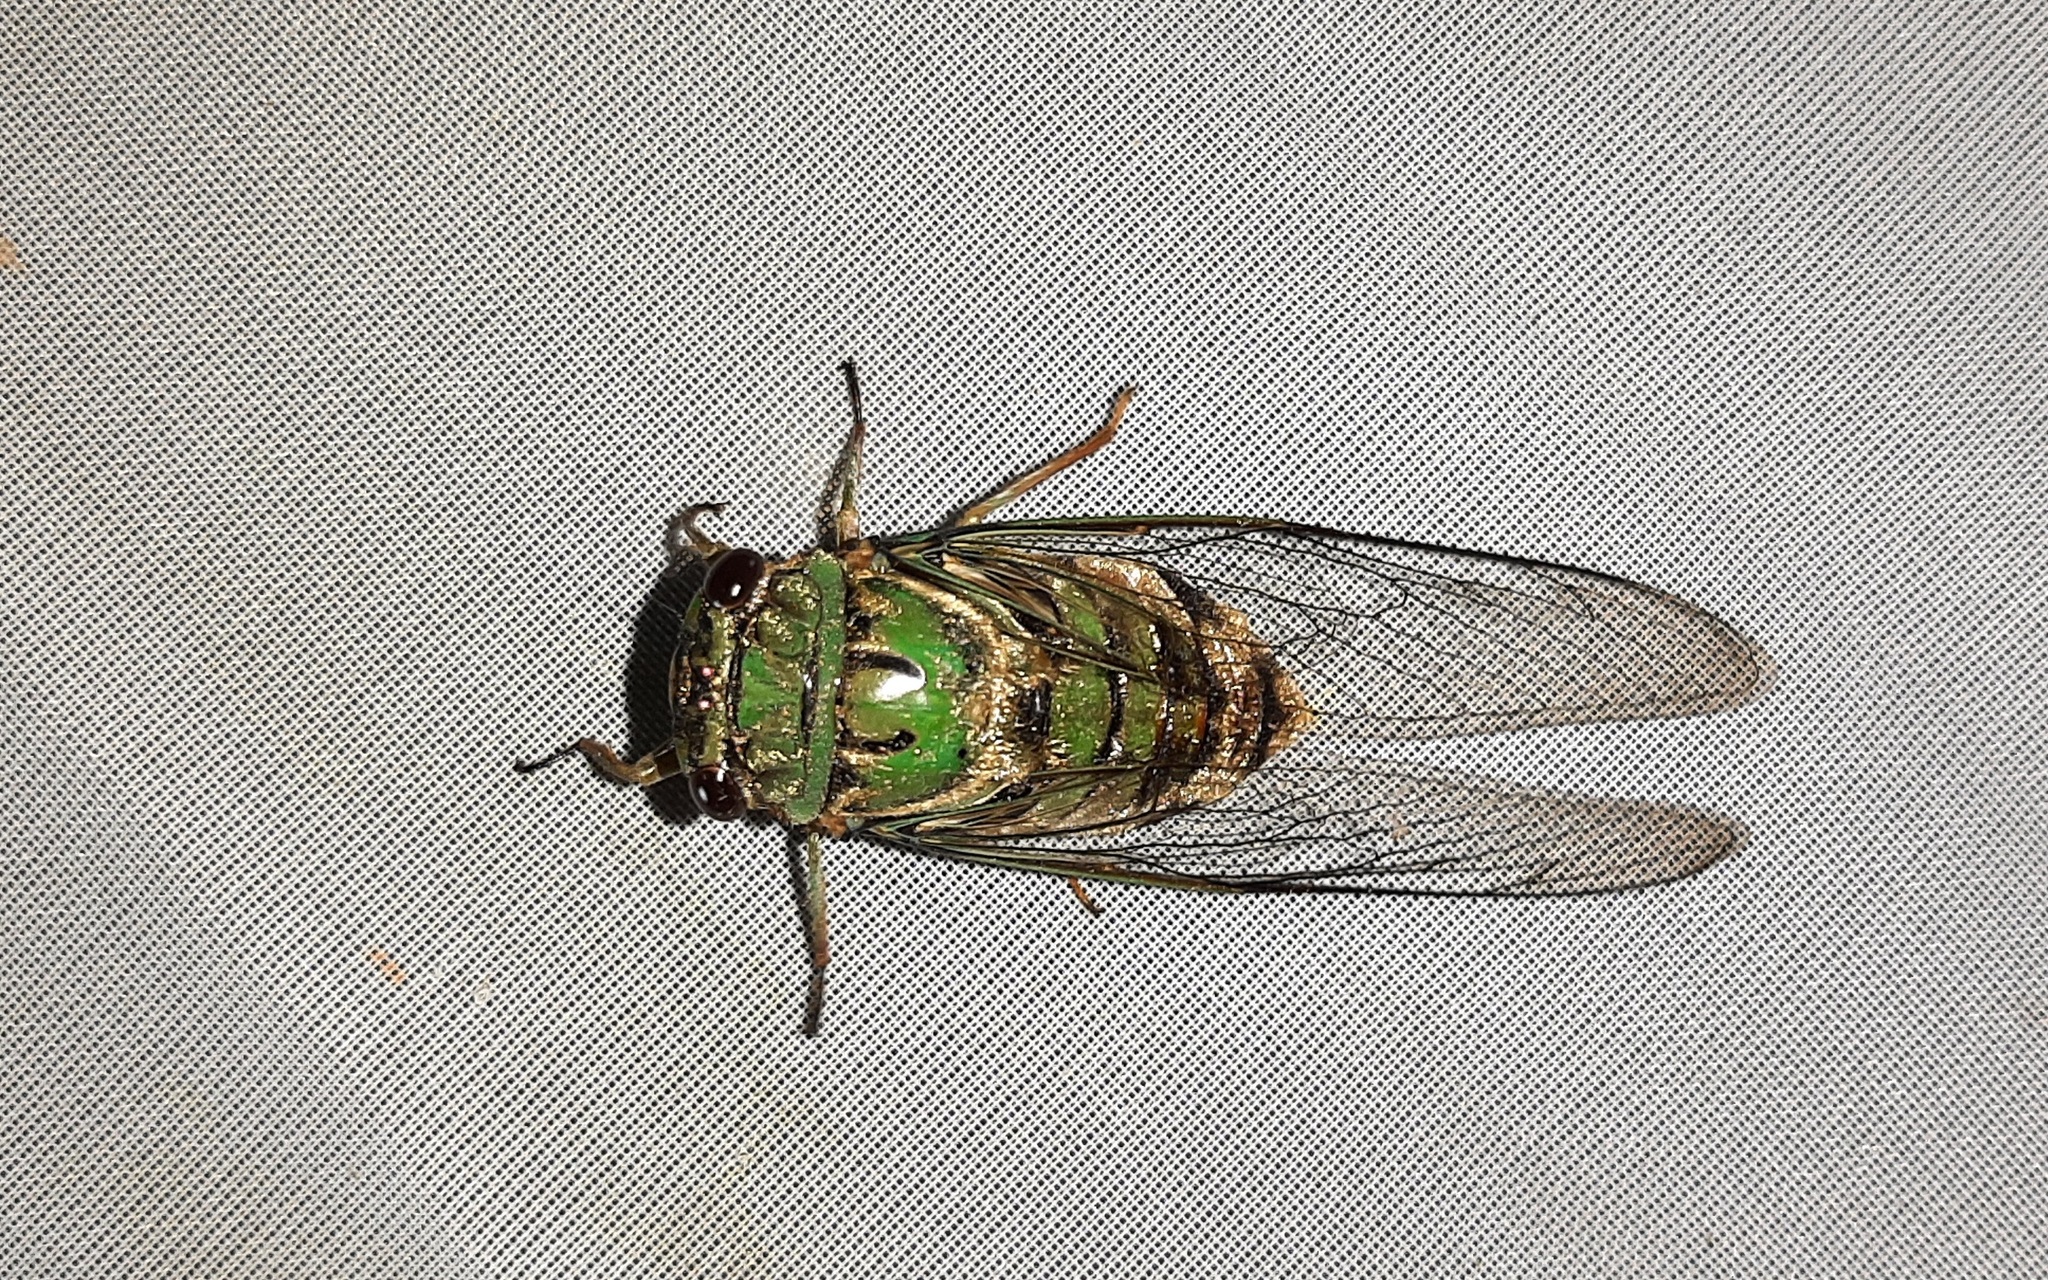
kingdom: Animalia
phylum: Arthropoda
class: Insecta
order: Hemiptera
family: Cicadidae
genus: Guyalna
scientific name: Guyalna distanti
